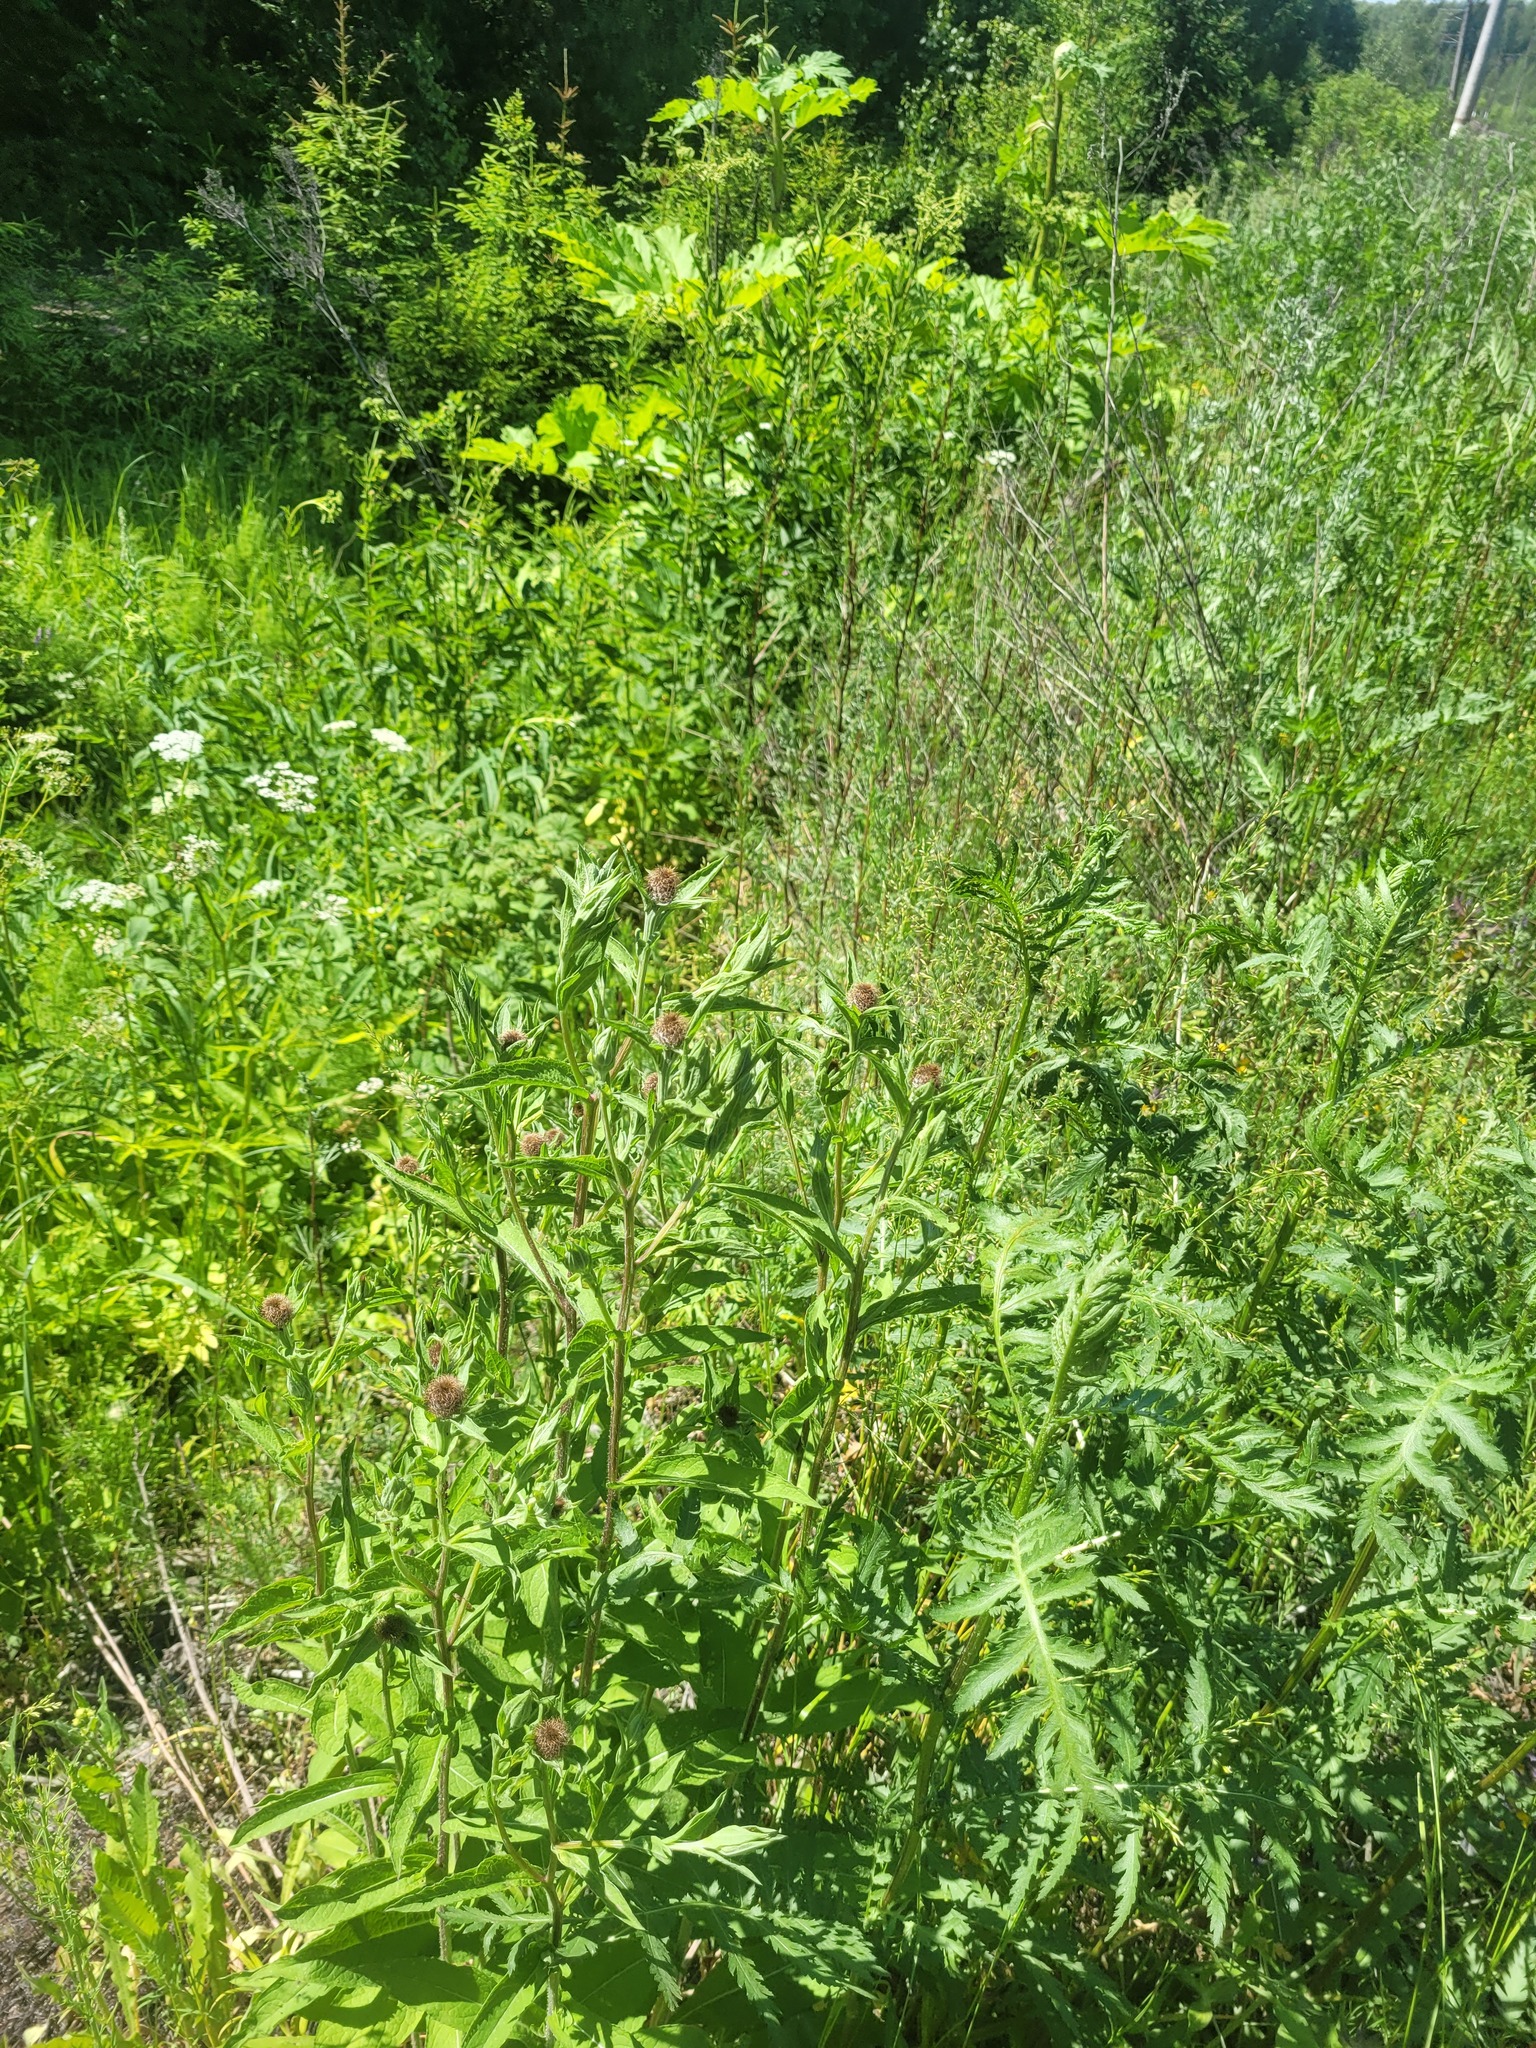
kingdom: Plantae
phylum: Tracheophyta
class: Magnoliopsida
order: Asterales
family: Asteraceae
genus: Centaurea
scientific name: Centaurea pseudophrygia
